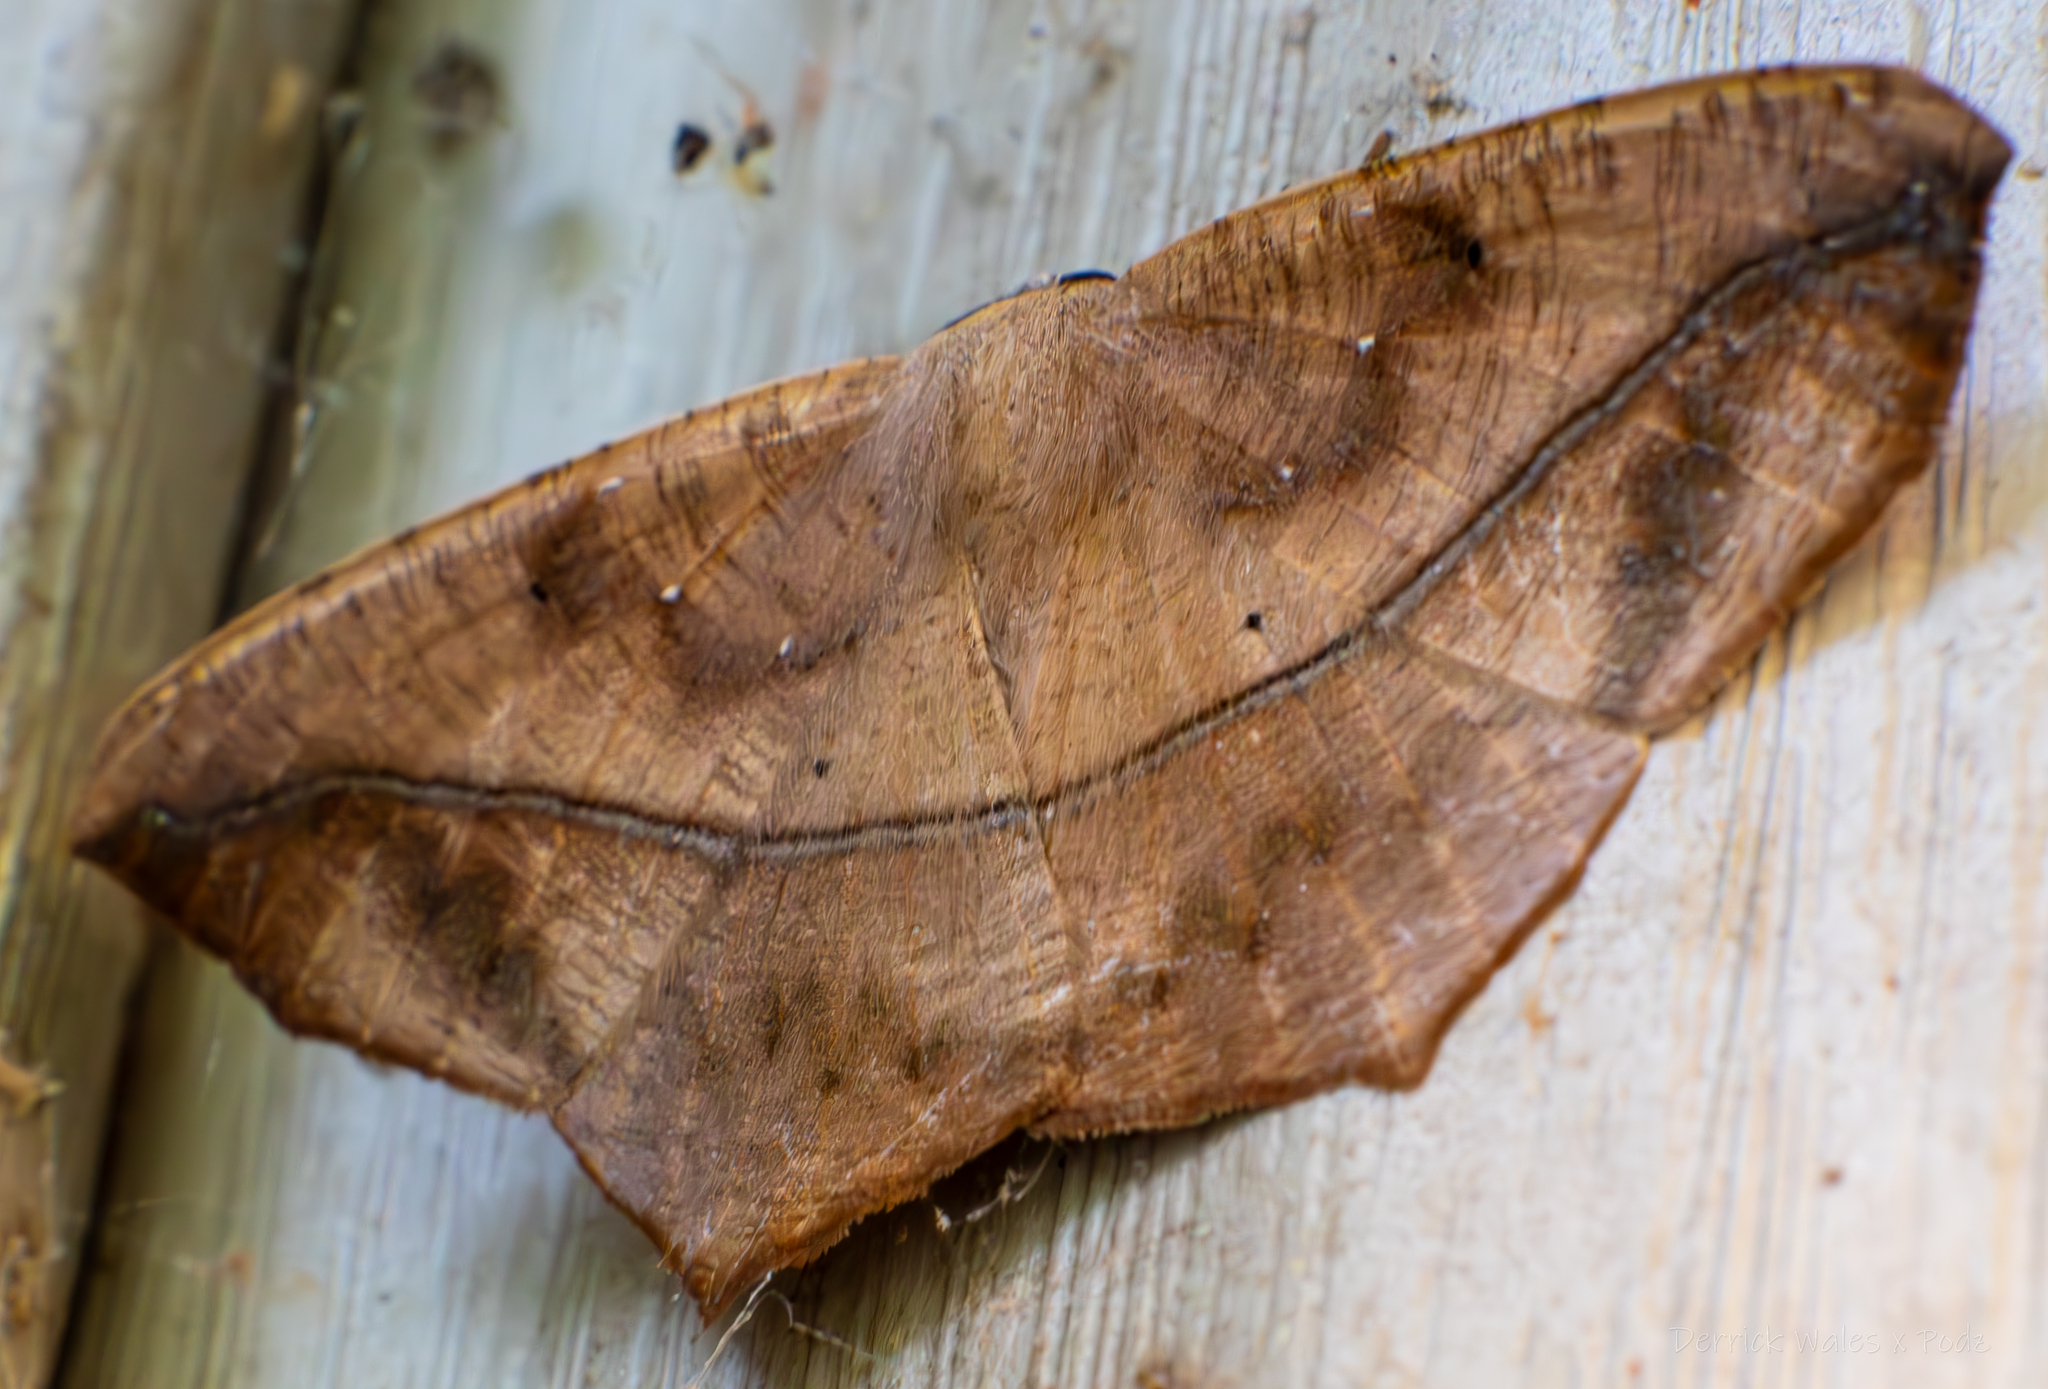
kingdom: Animalia
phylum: Arthropoda
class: Insecta
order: Lepidoptera
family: Geometridae
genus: Prochoerodes
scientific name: Prochoerodes lineola
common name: Large maple spanworm
